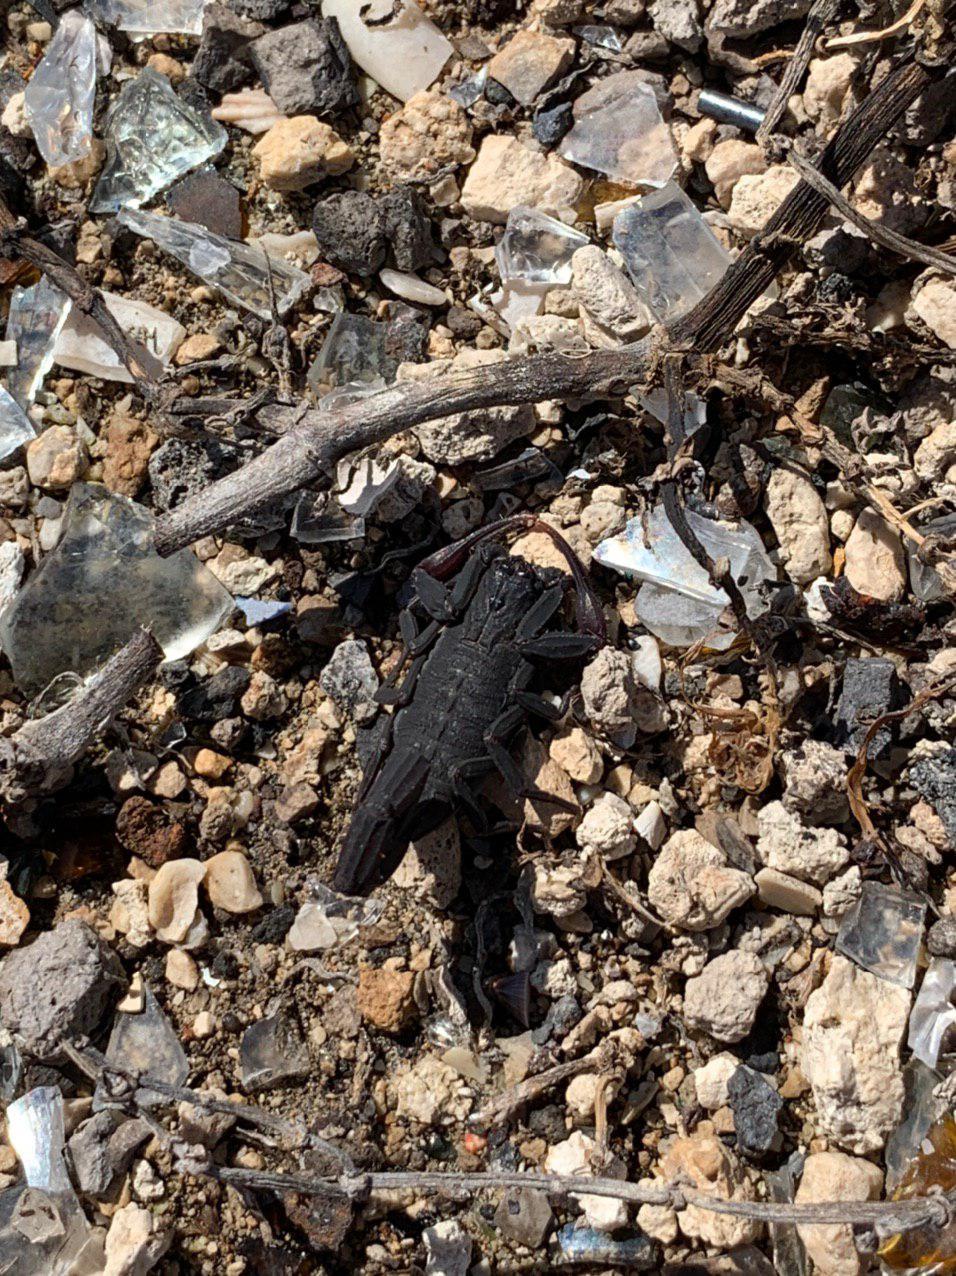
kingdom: Animalia
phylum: Arthropoda
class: Arachnida
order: Scorpiones
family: Buthidae
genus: Centruroides
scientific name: Centruroides gracilis
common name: Scorpions
